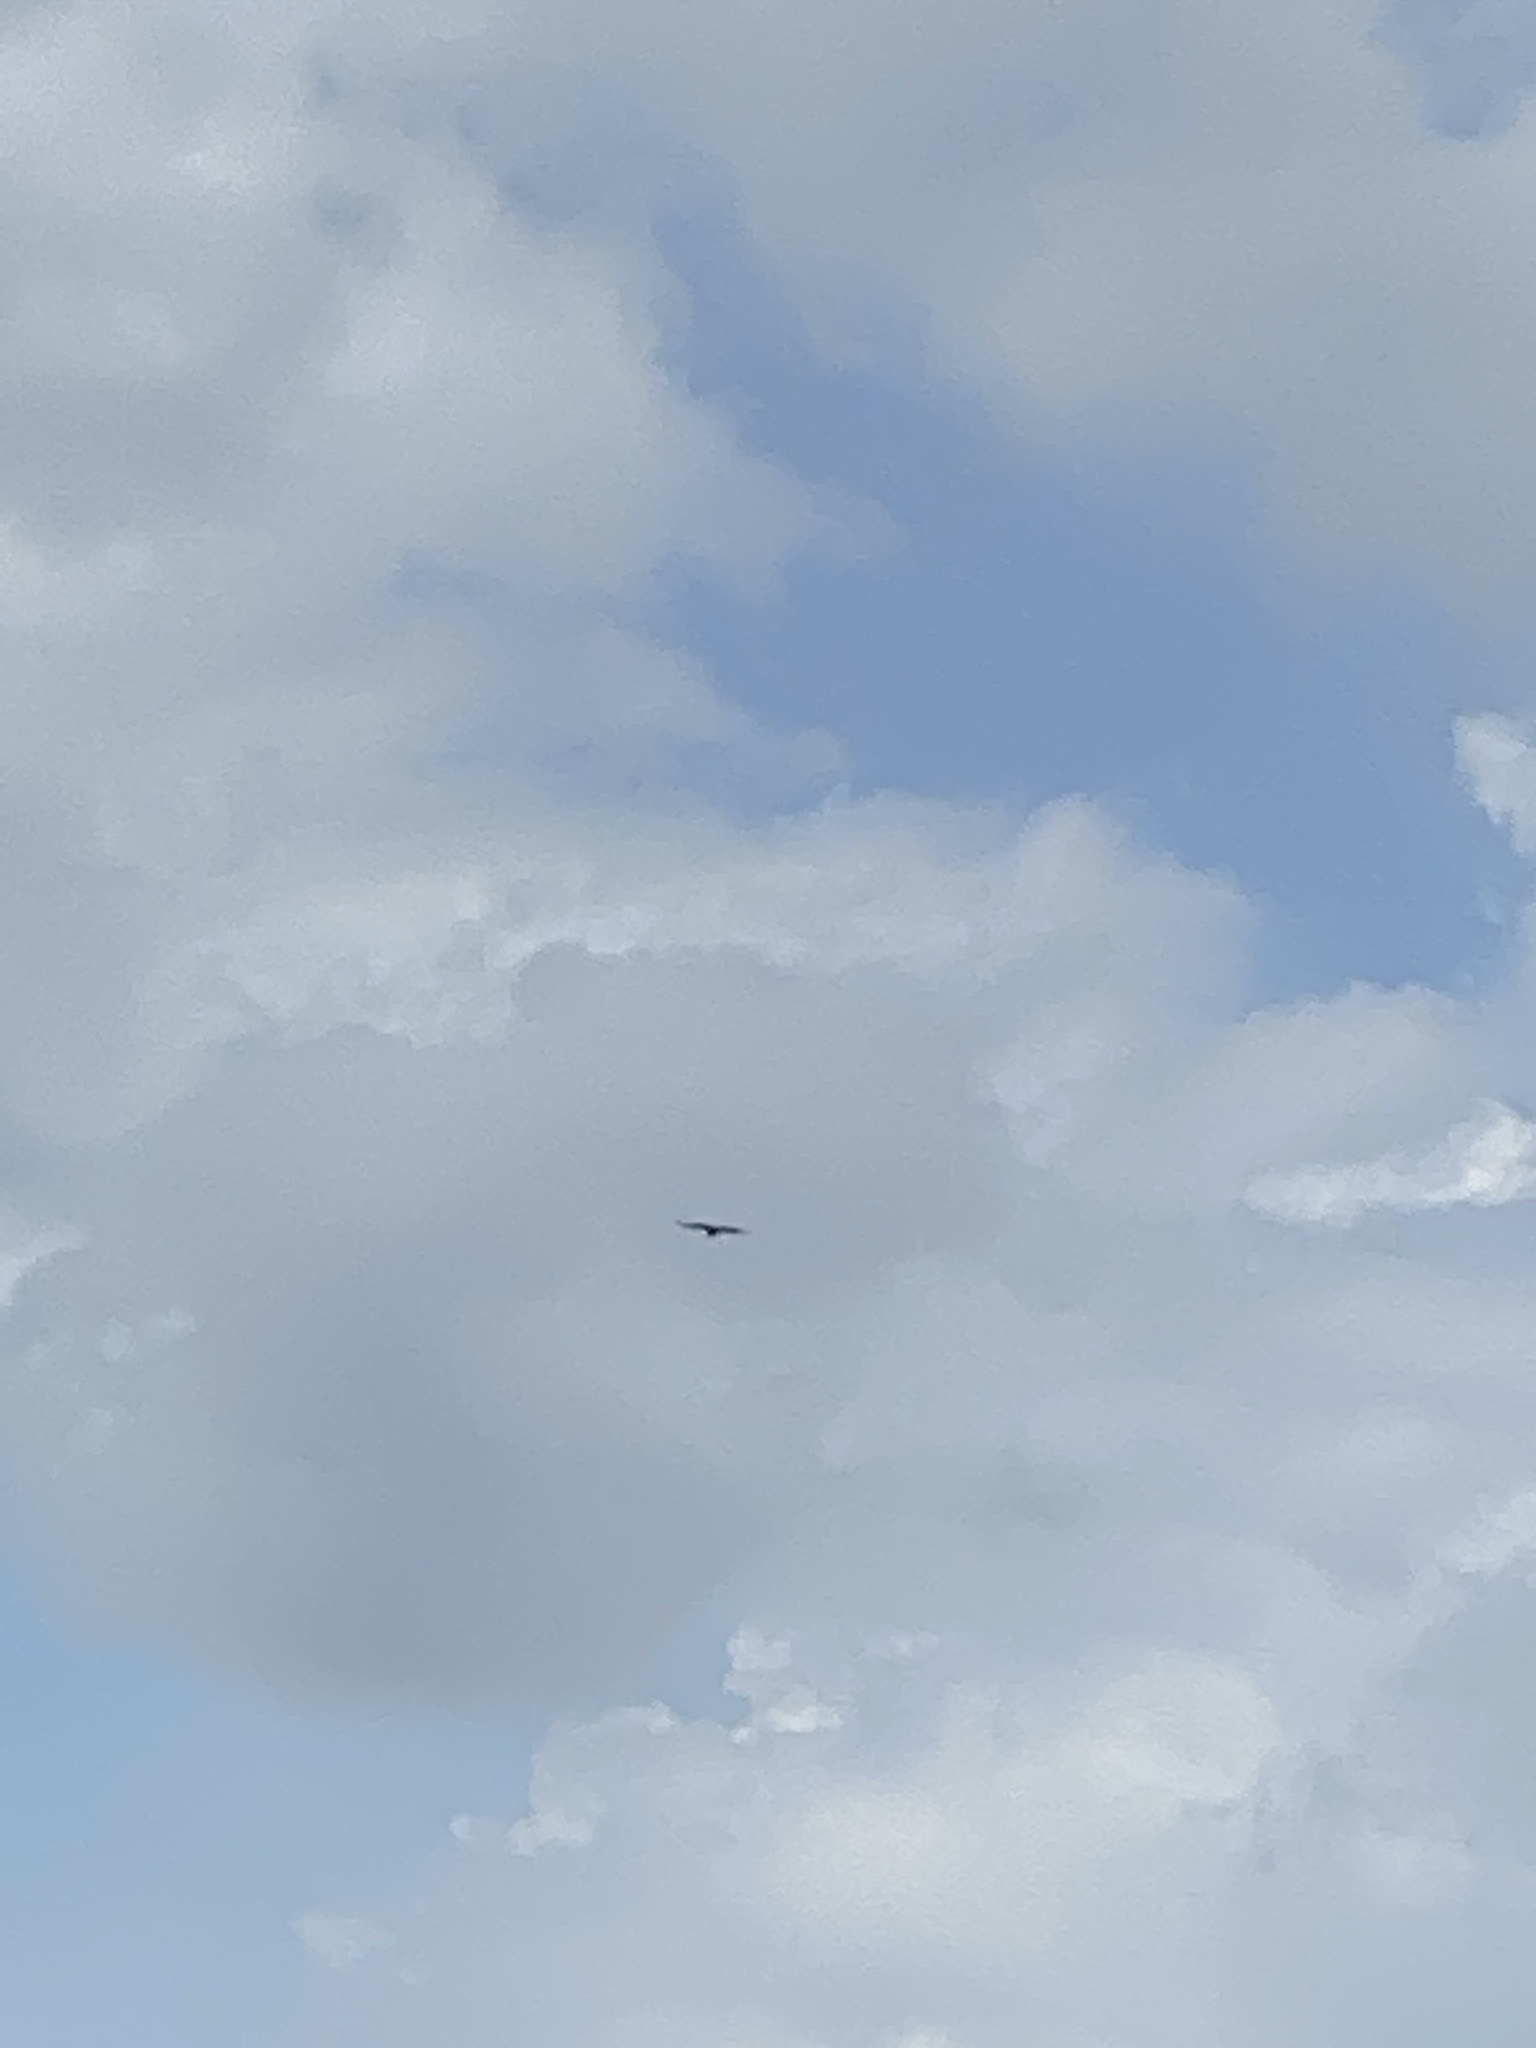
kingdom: Animalia
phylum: Chordata
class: Aves
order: Accipitriformes
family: Cathartidae
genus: Coragyps
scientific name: Coragyps atratus
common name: Black vulture
